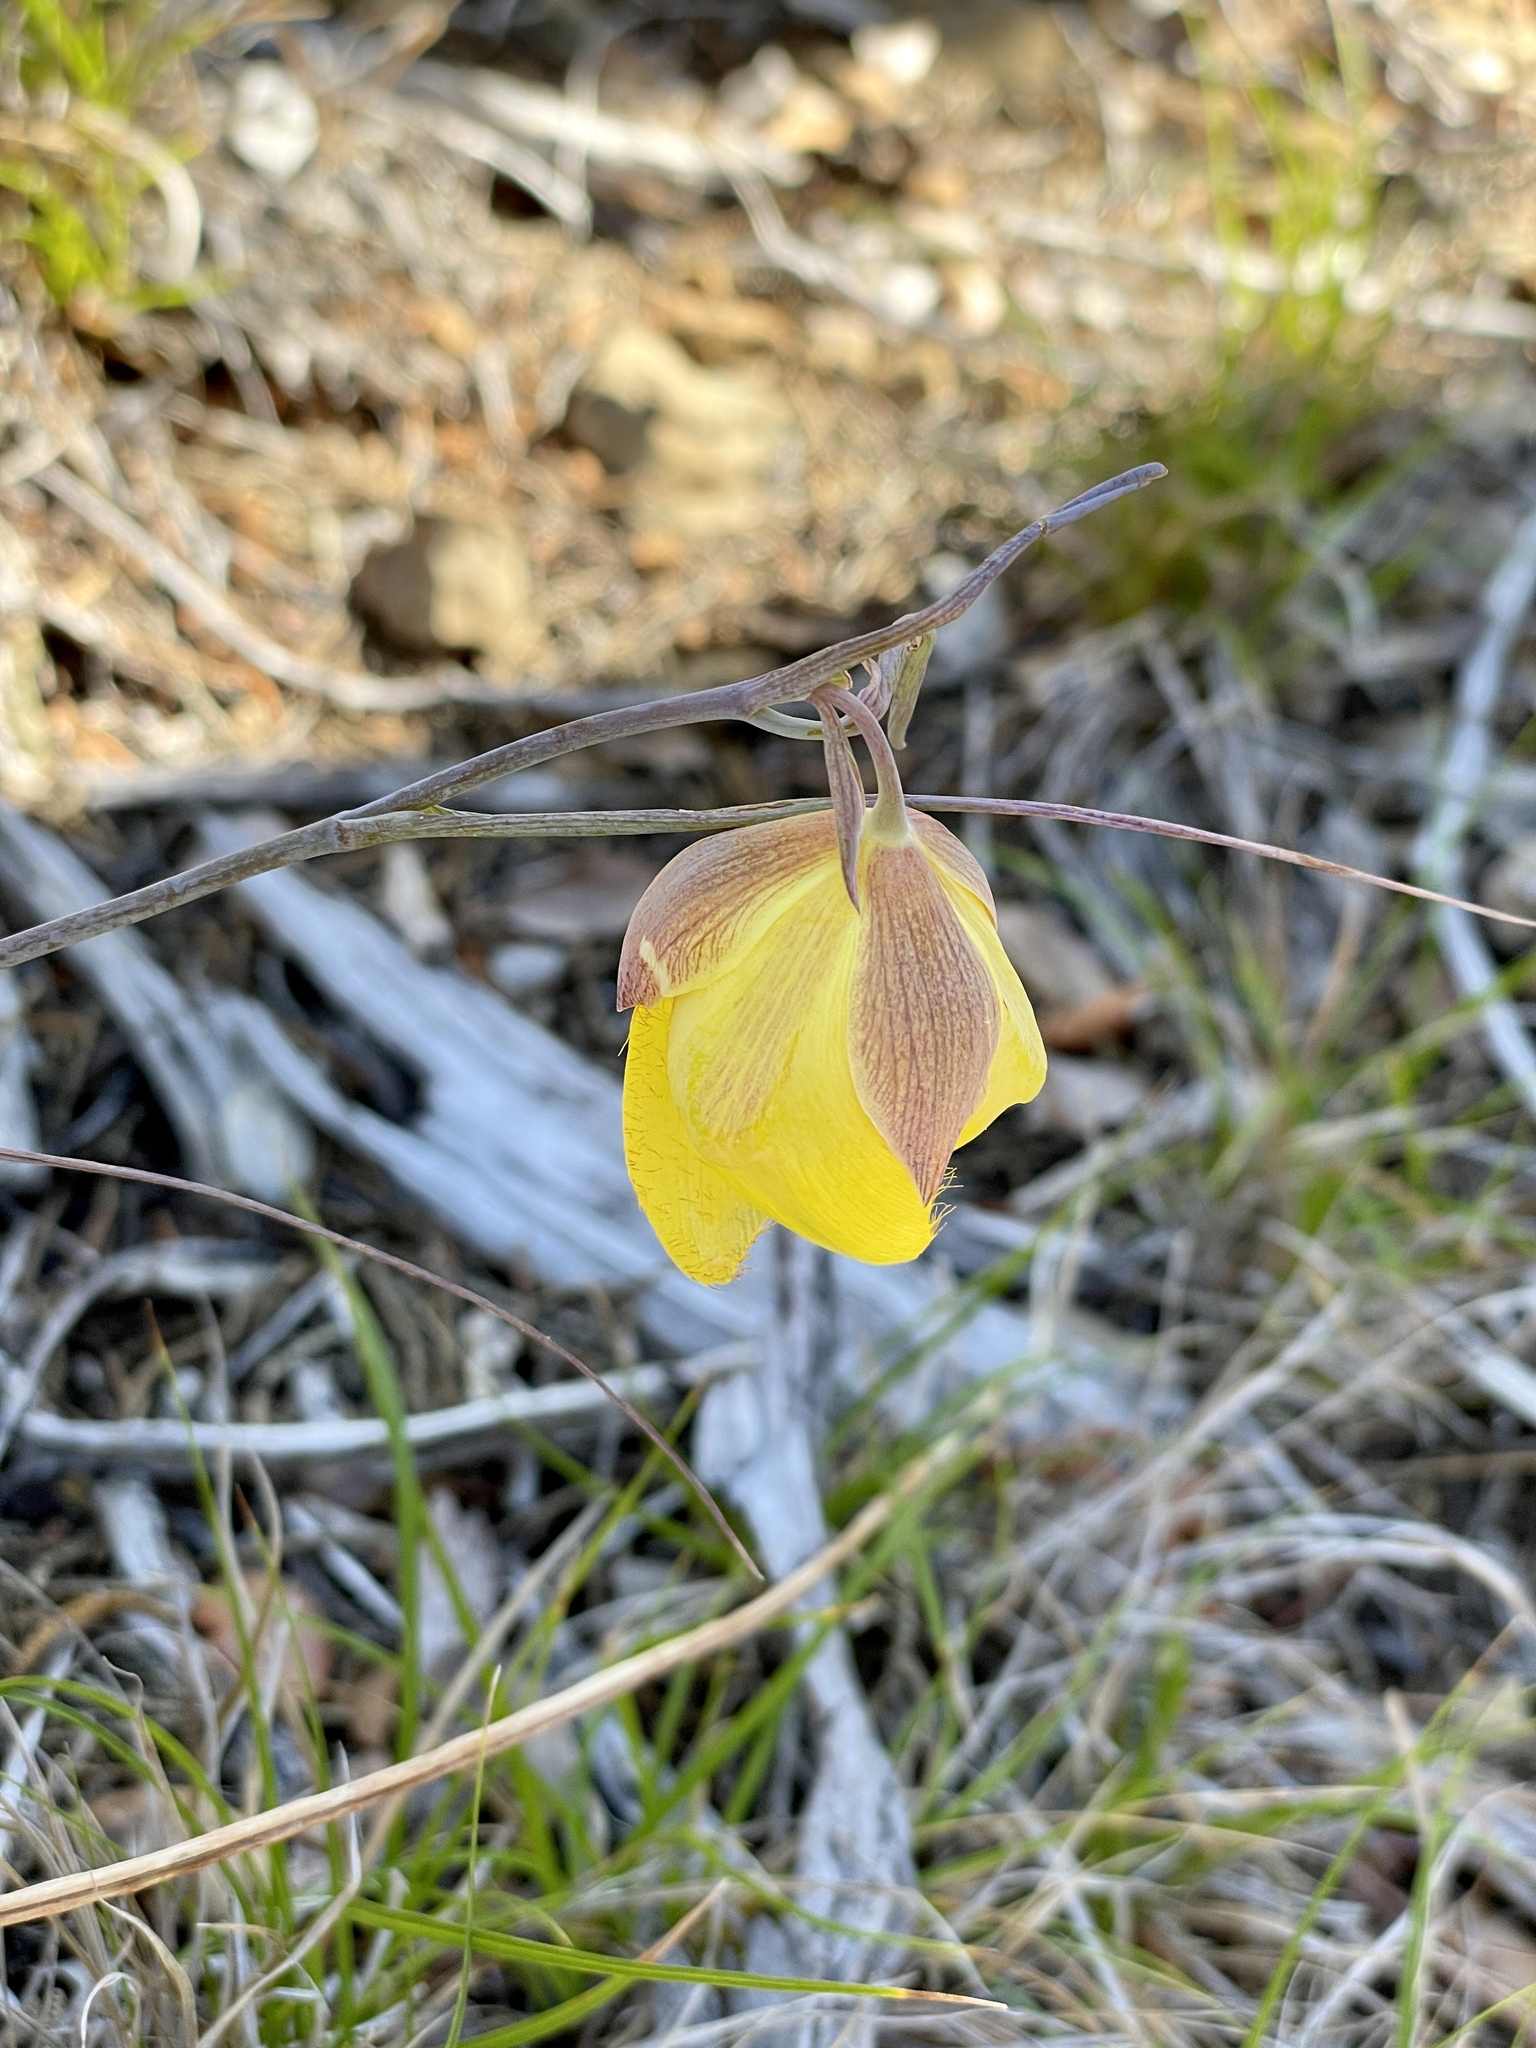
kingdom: Plantae
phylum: Tracheophyta
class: Liliopsida
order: Liliales
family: Liliaceae
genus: Calochortus
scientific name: Calochortus raichei
